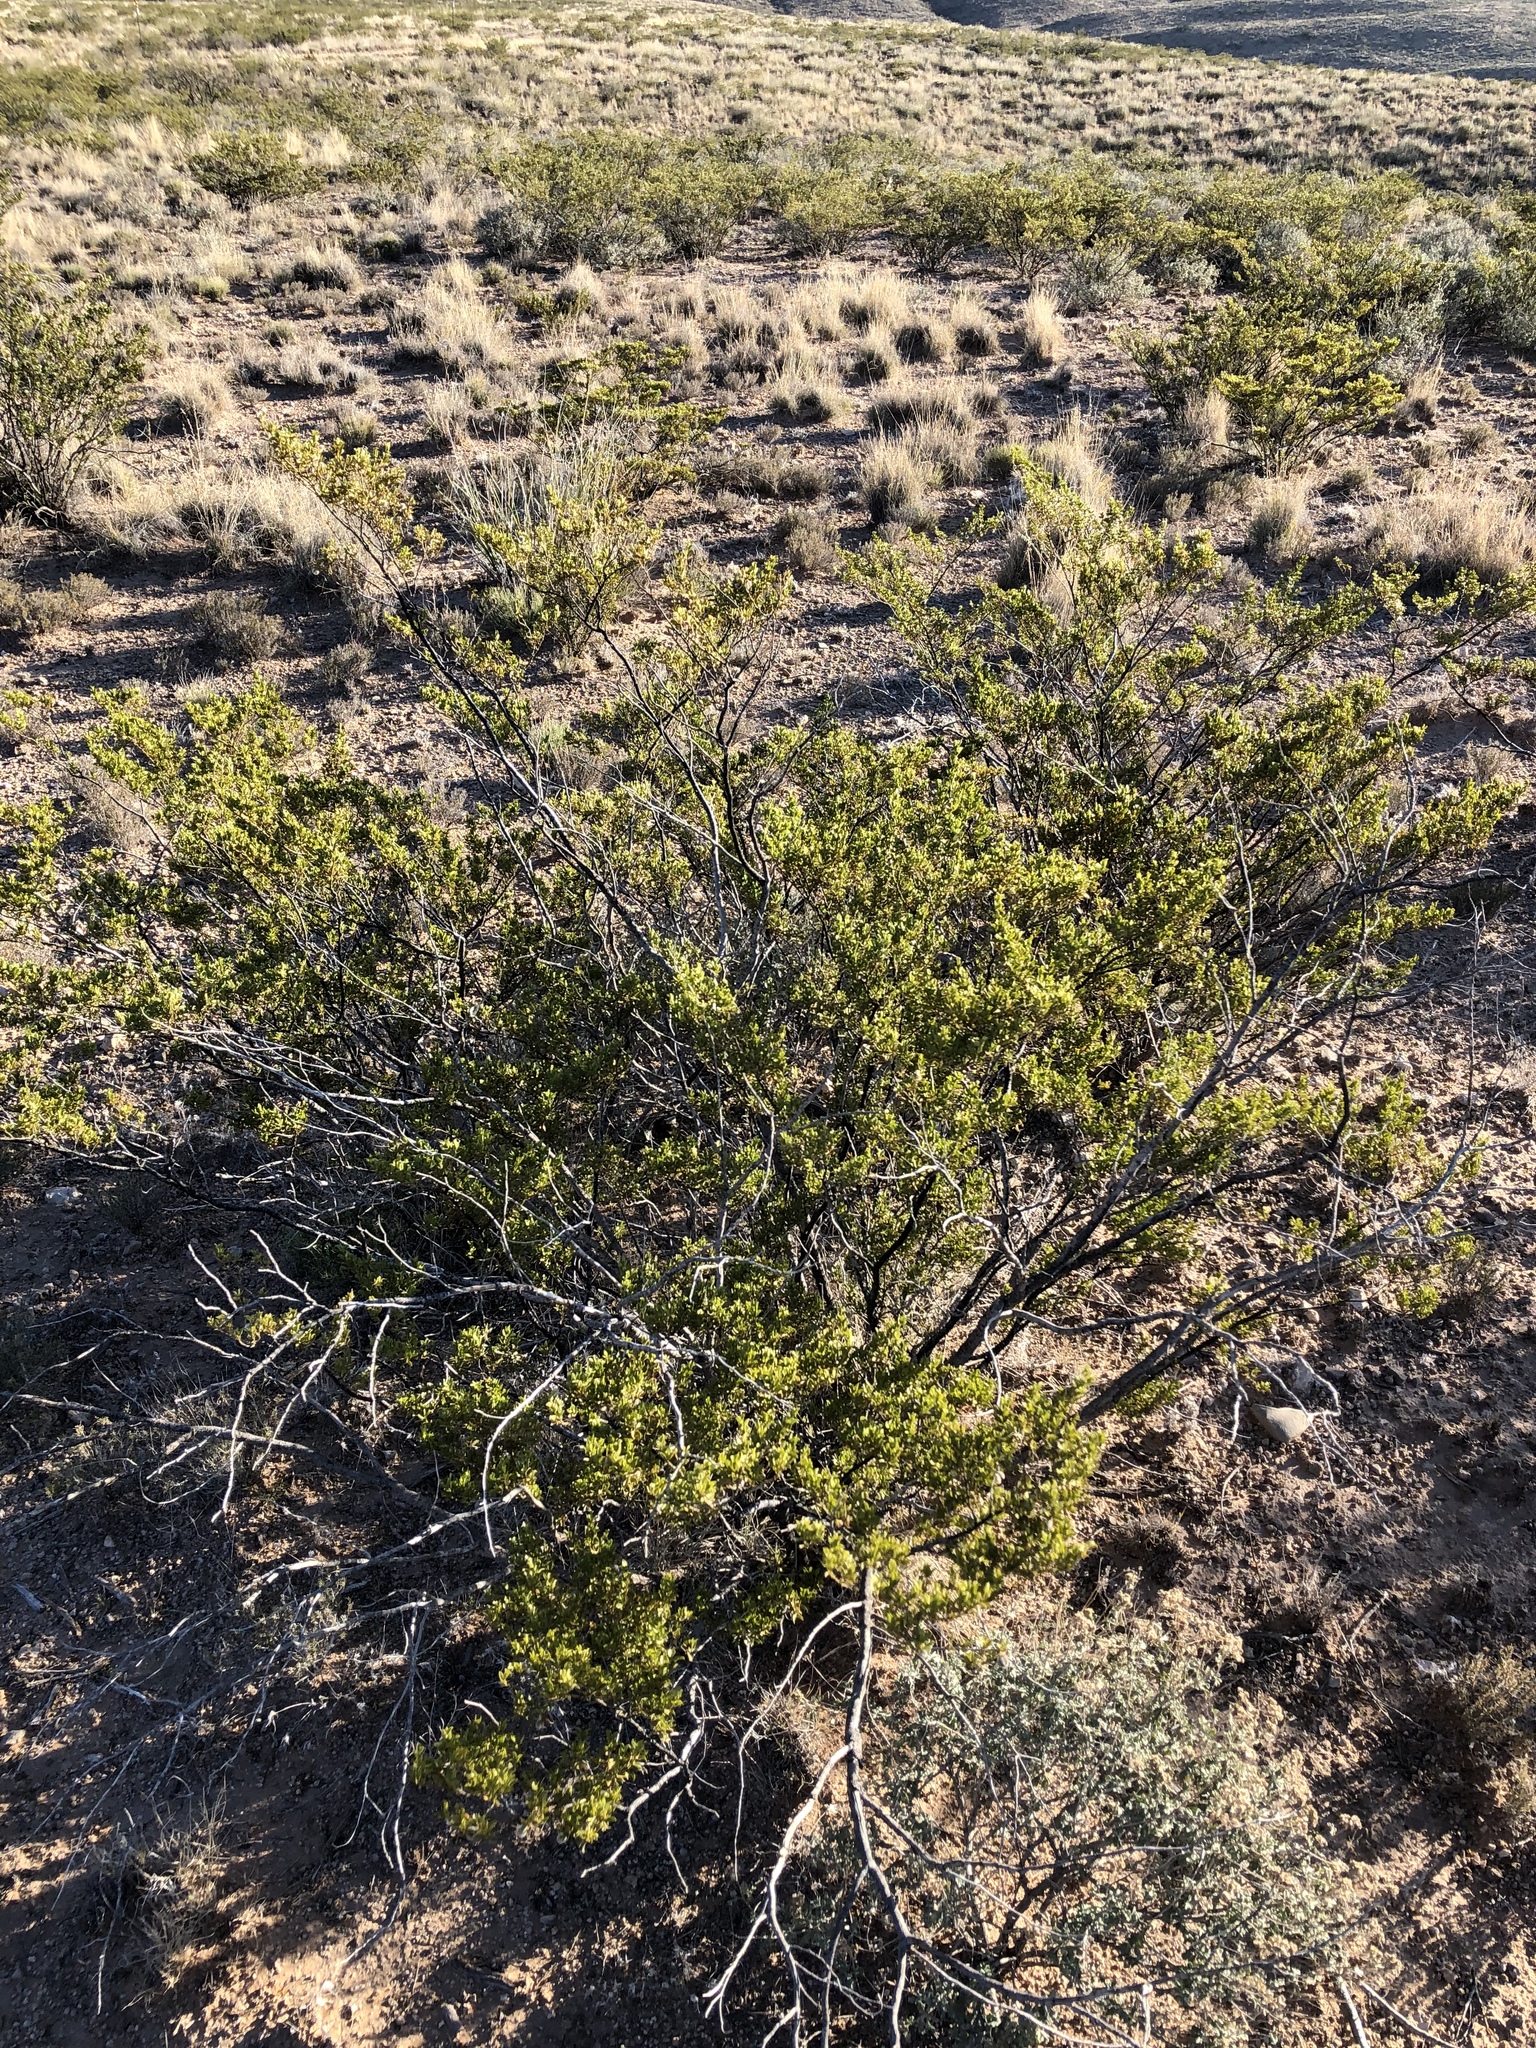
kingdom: Plantae
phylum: Tracheophyta
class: Magnoliopsida
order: Zygophyllales
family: Zygophyllaceae
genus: Larrea
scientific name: Larrea tridentata
